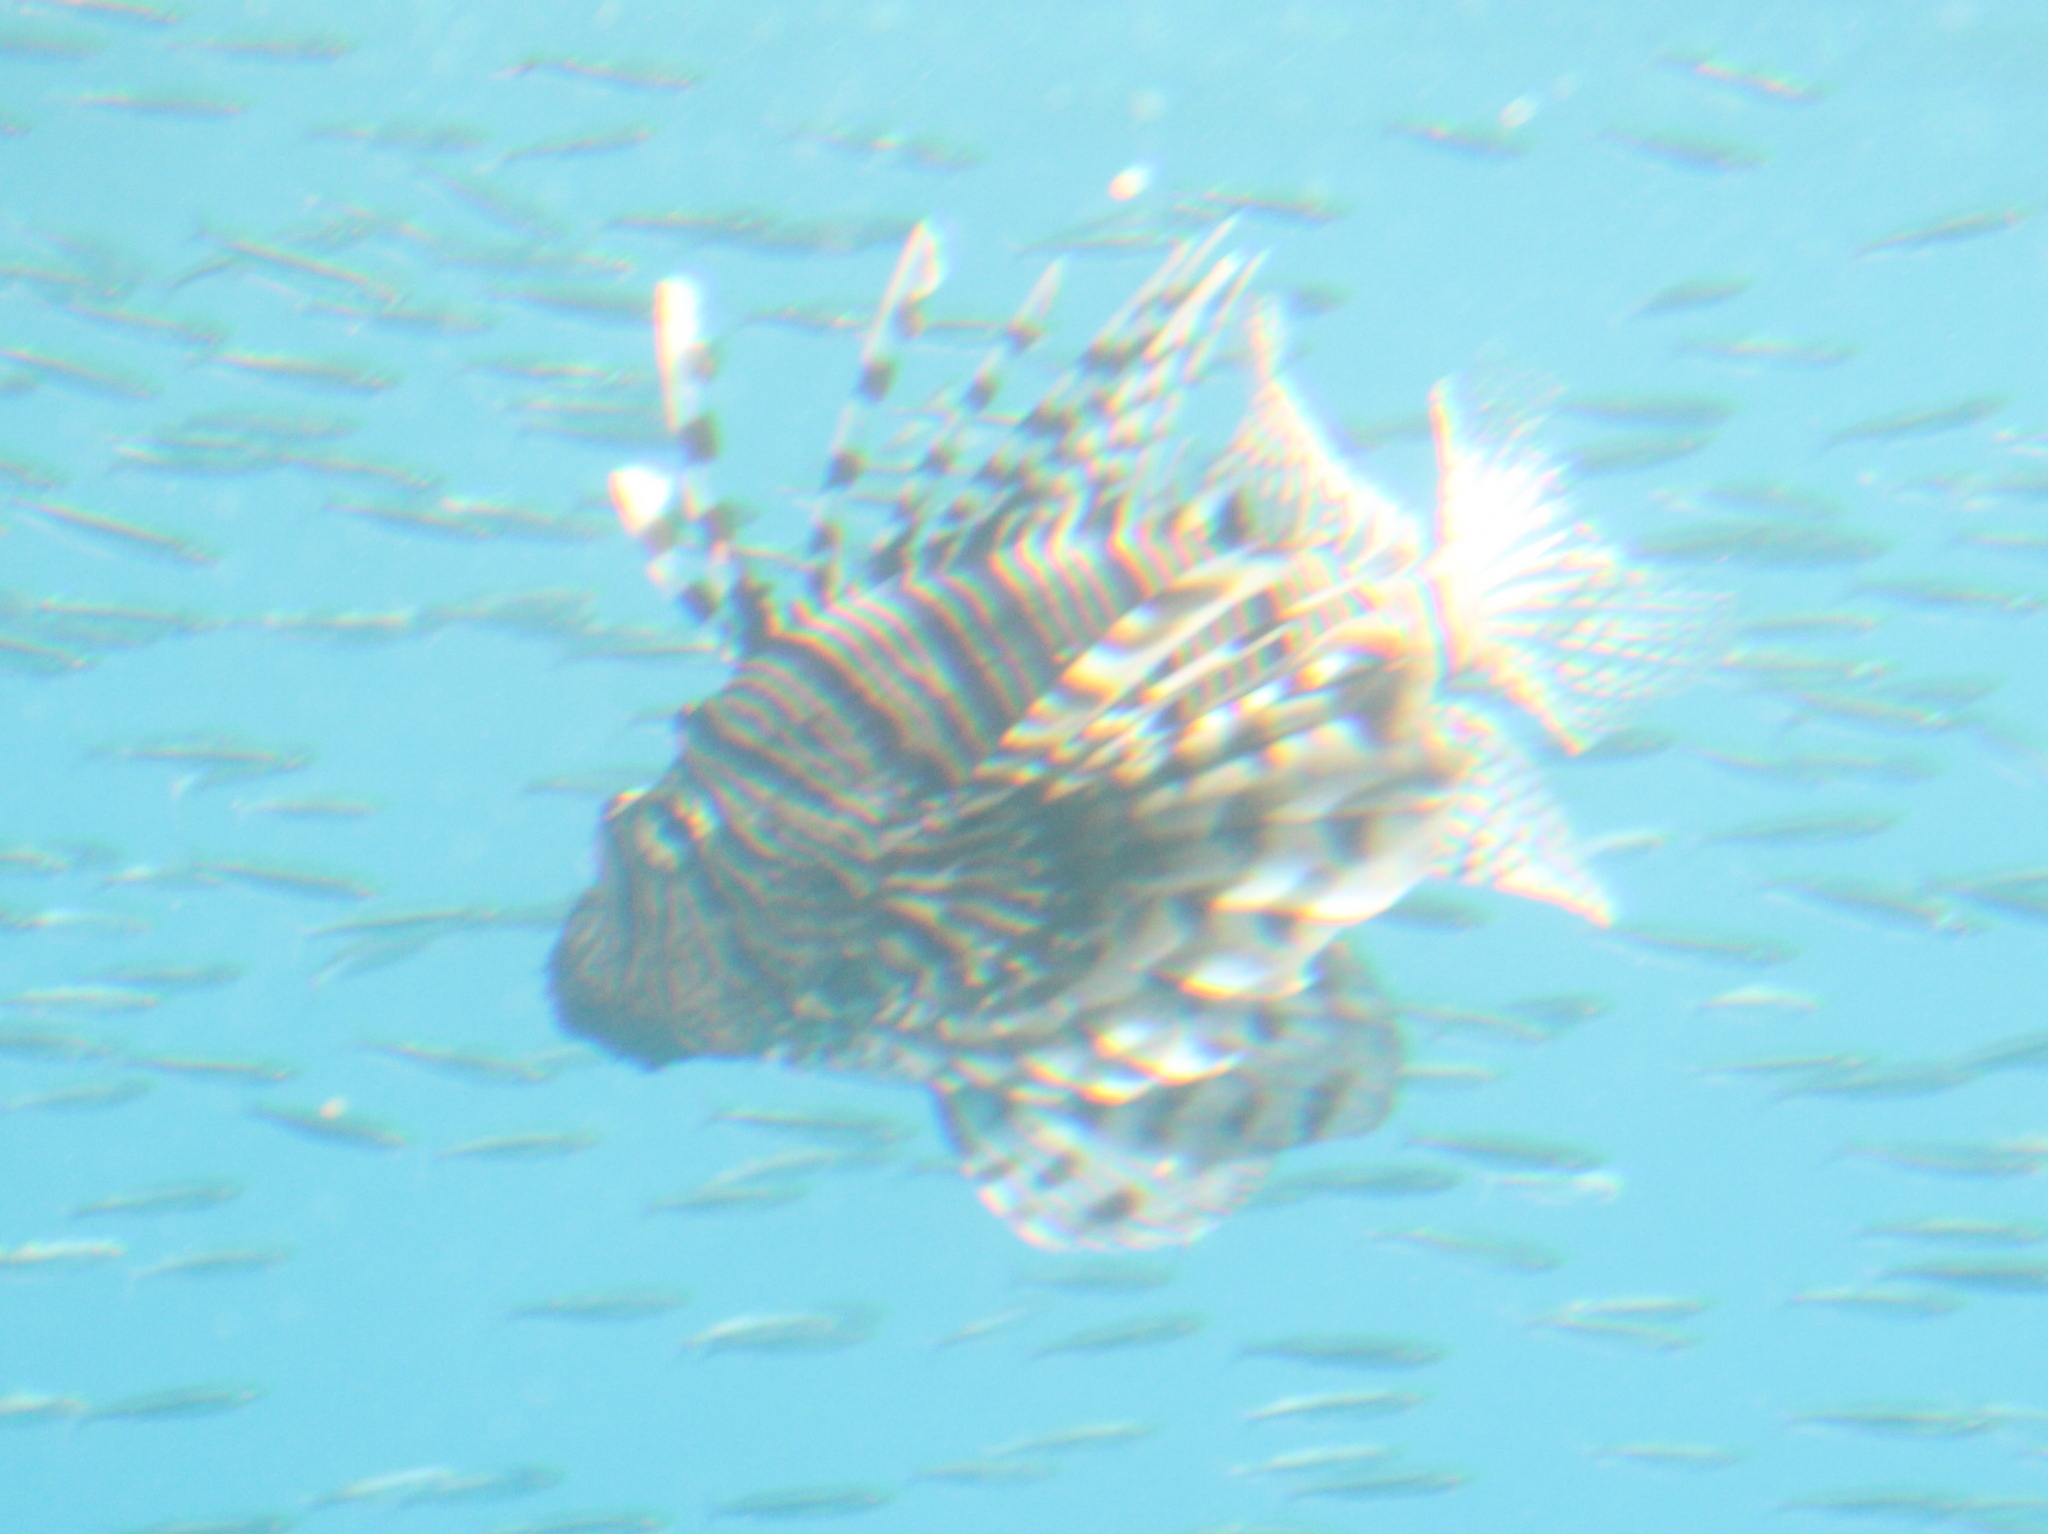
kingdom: Animalia
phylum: Chordata
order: Scorpaeniformes
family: Scorpaenidae
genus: Pterois
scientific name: Pterois miles
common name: Devil firefish
